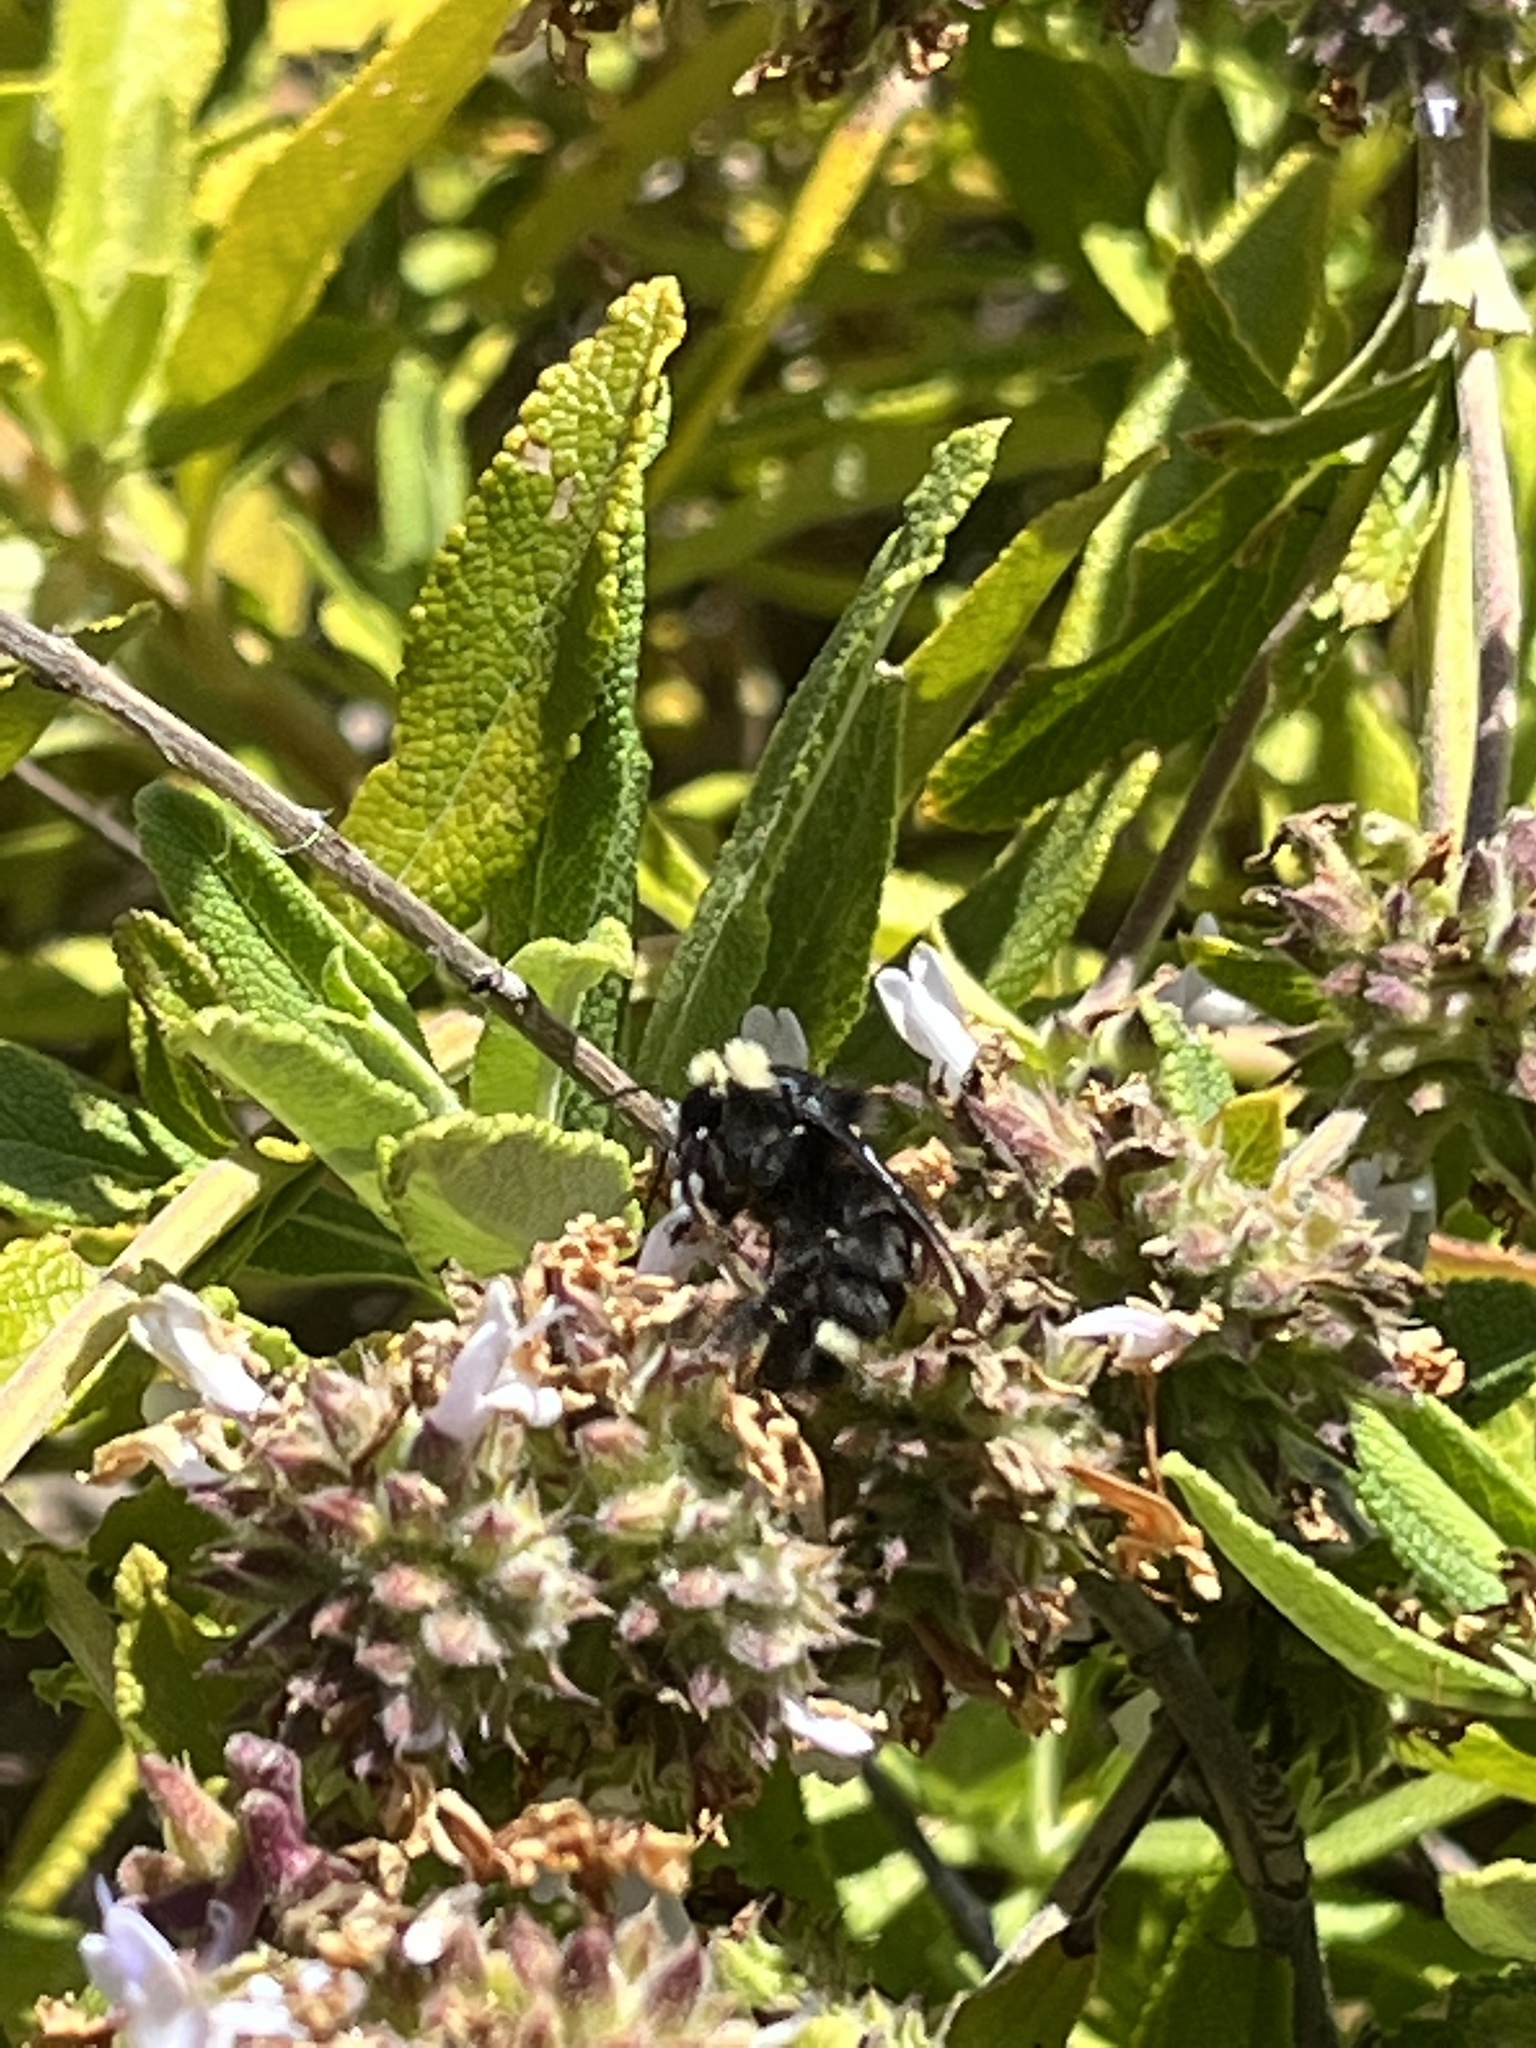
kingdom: Animalia
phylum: Arthropoda
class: Insecta
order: Hymenoptera
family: Apidae
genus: Bombus
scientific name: Bombus vosnesenskii
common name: Vosnesensky bumble bee
